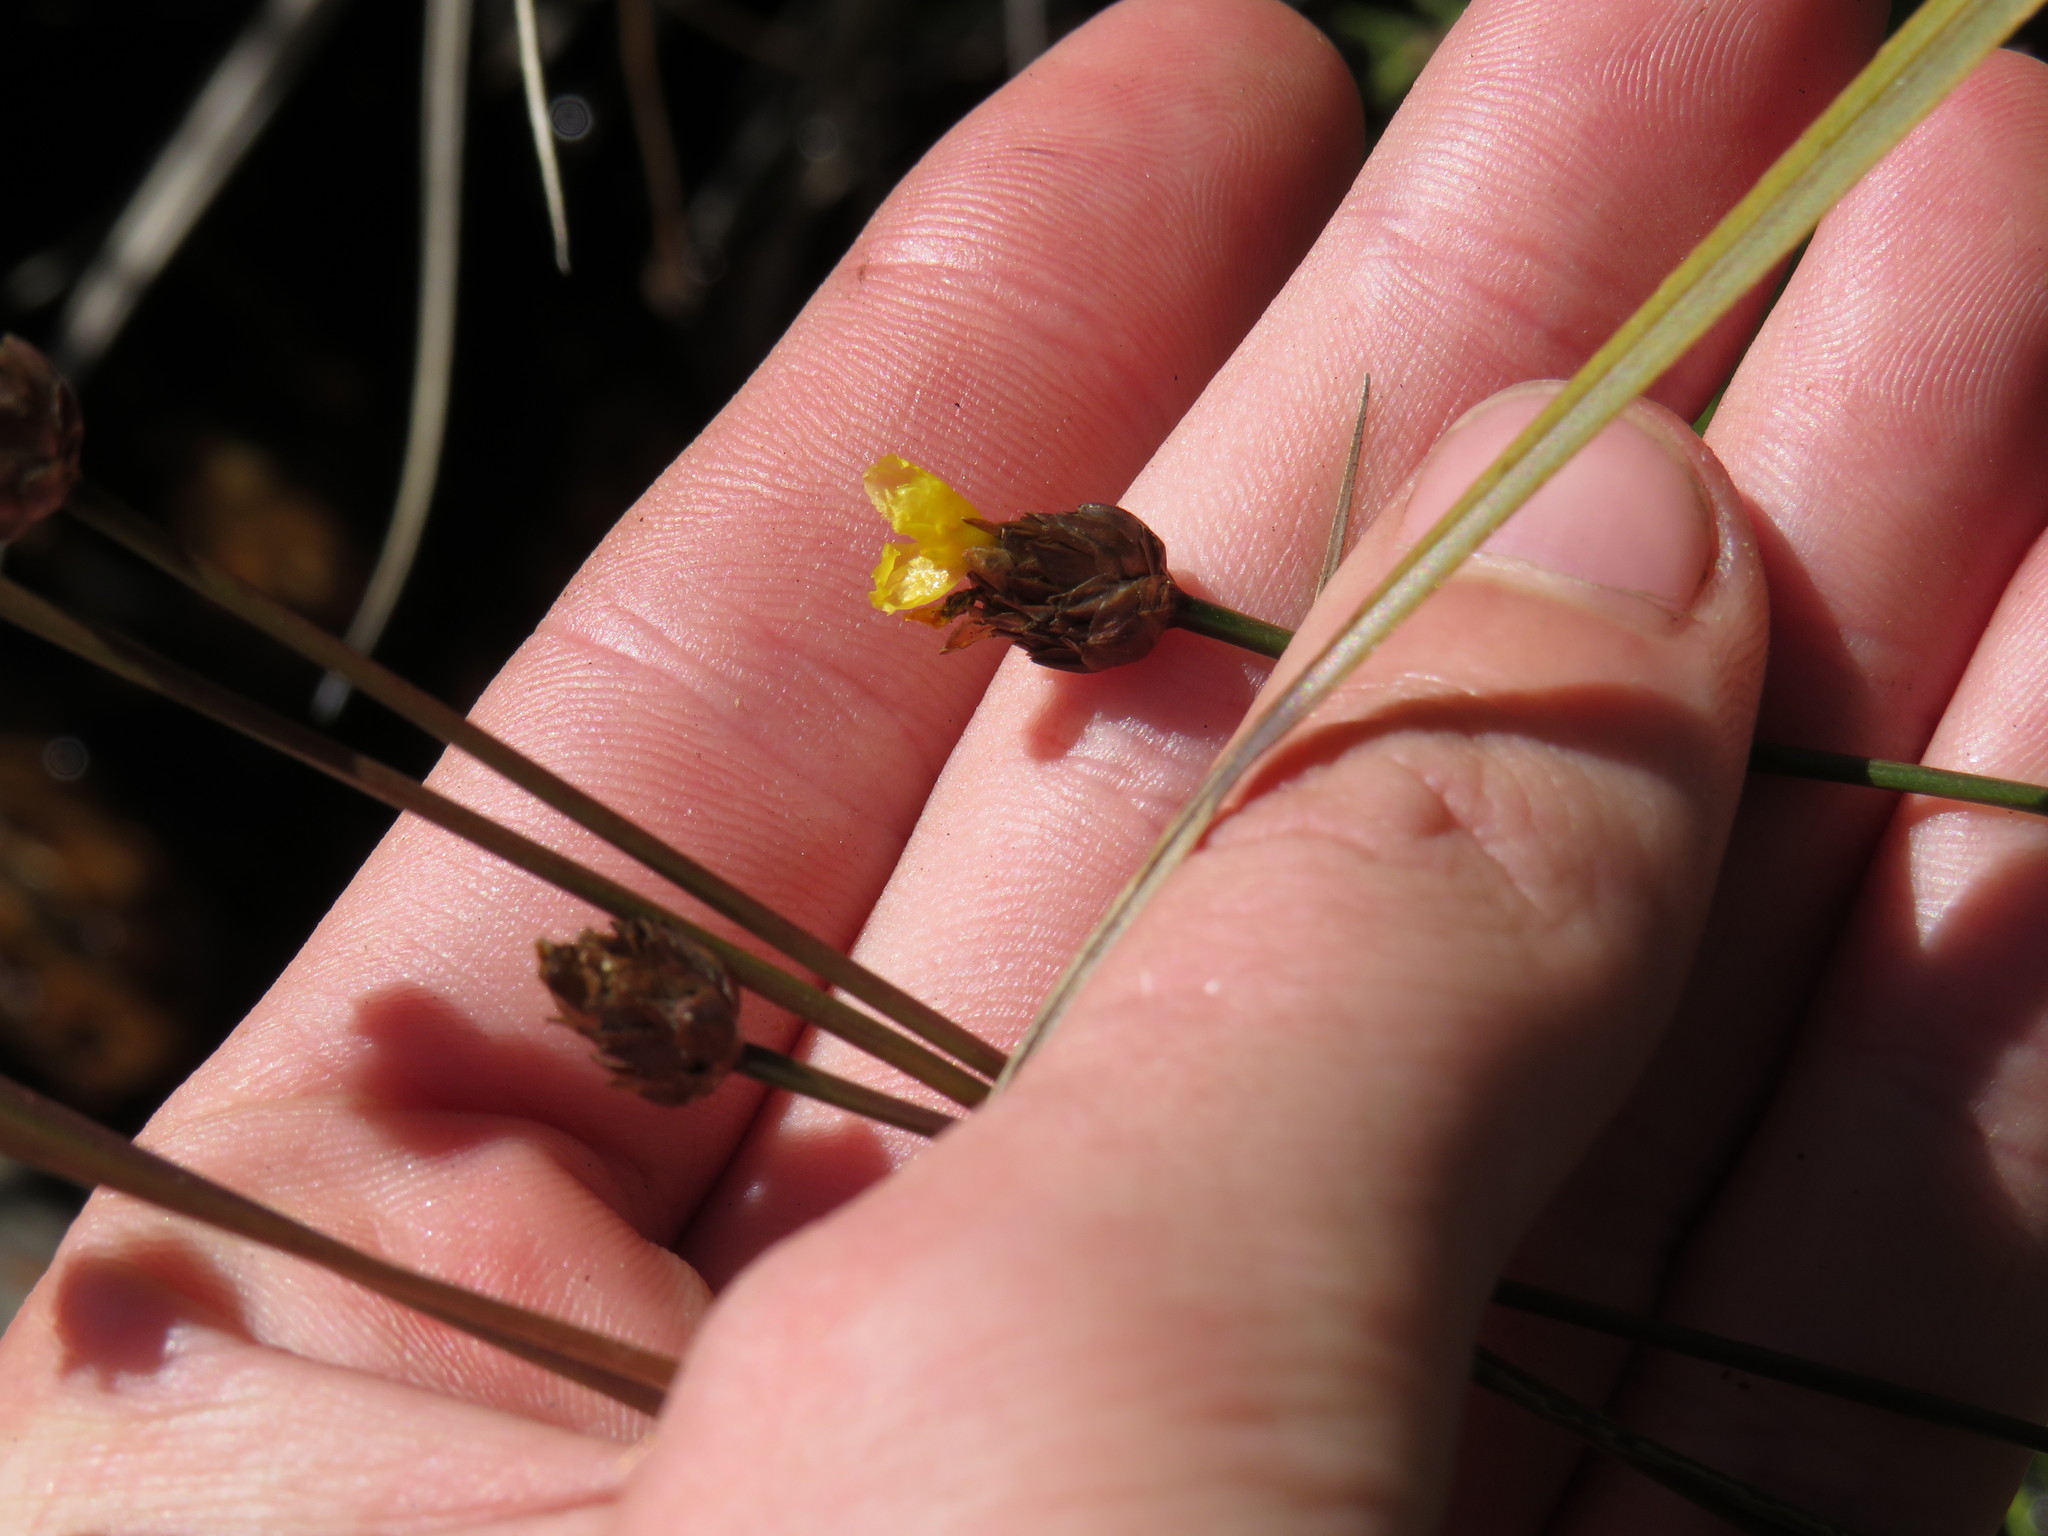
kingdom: Plantae
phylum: Tracheophyta
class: Liliopsida
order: Poales
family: Xyridaceae
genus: Xyris
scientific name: Xyris capensis
